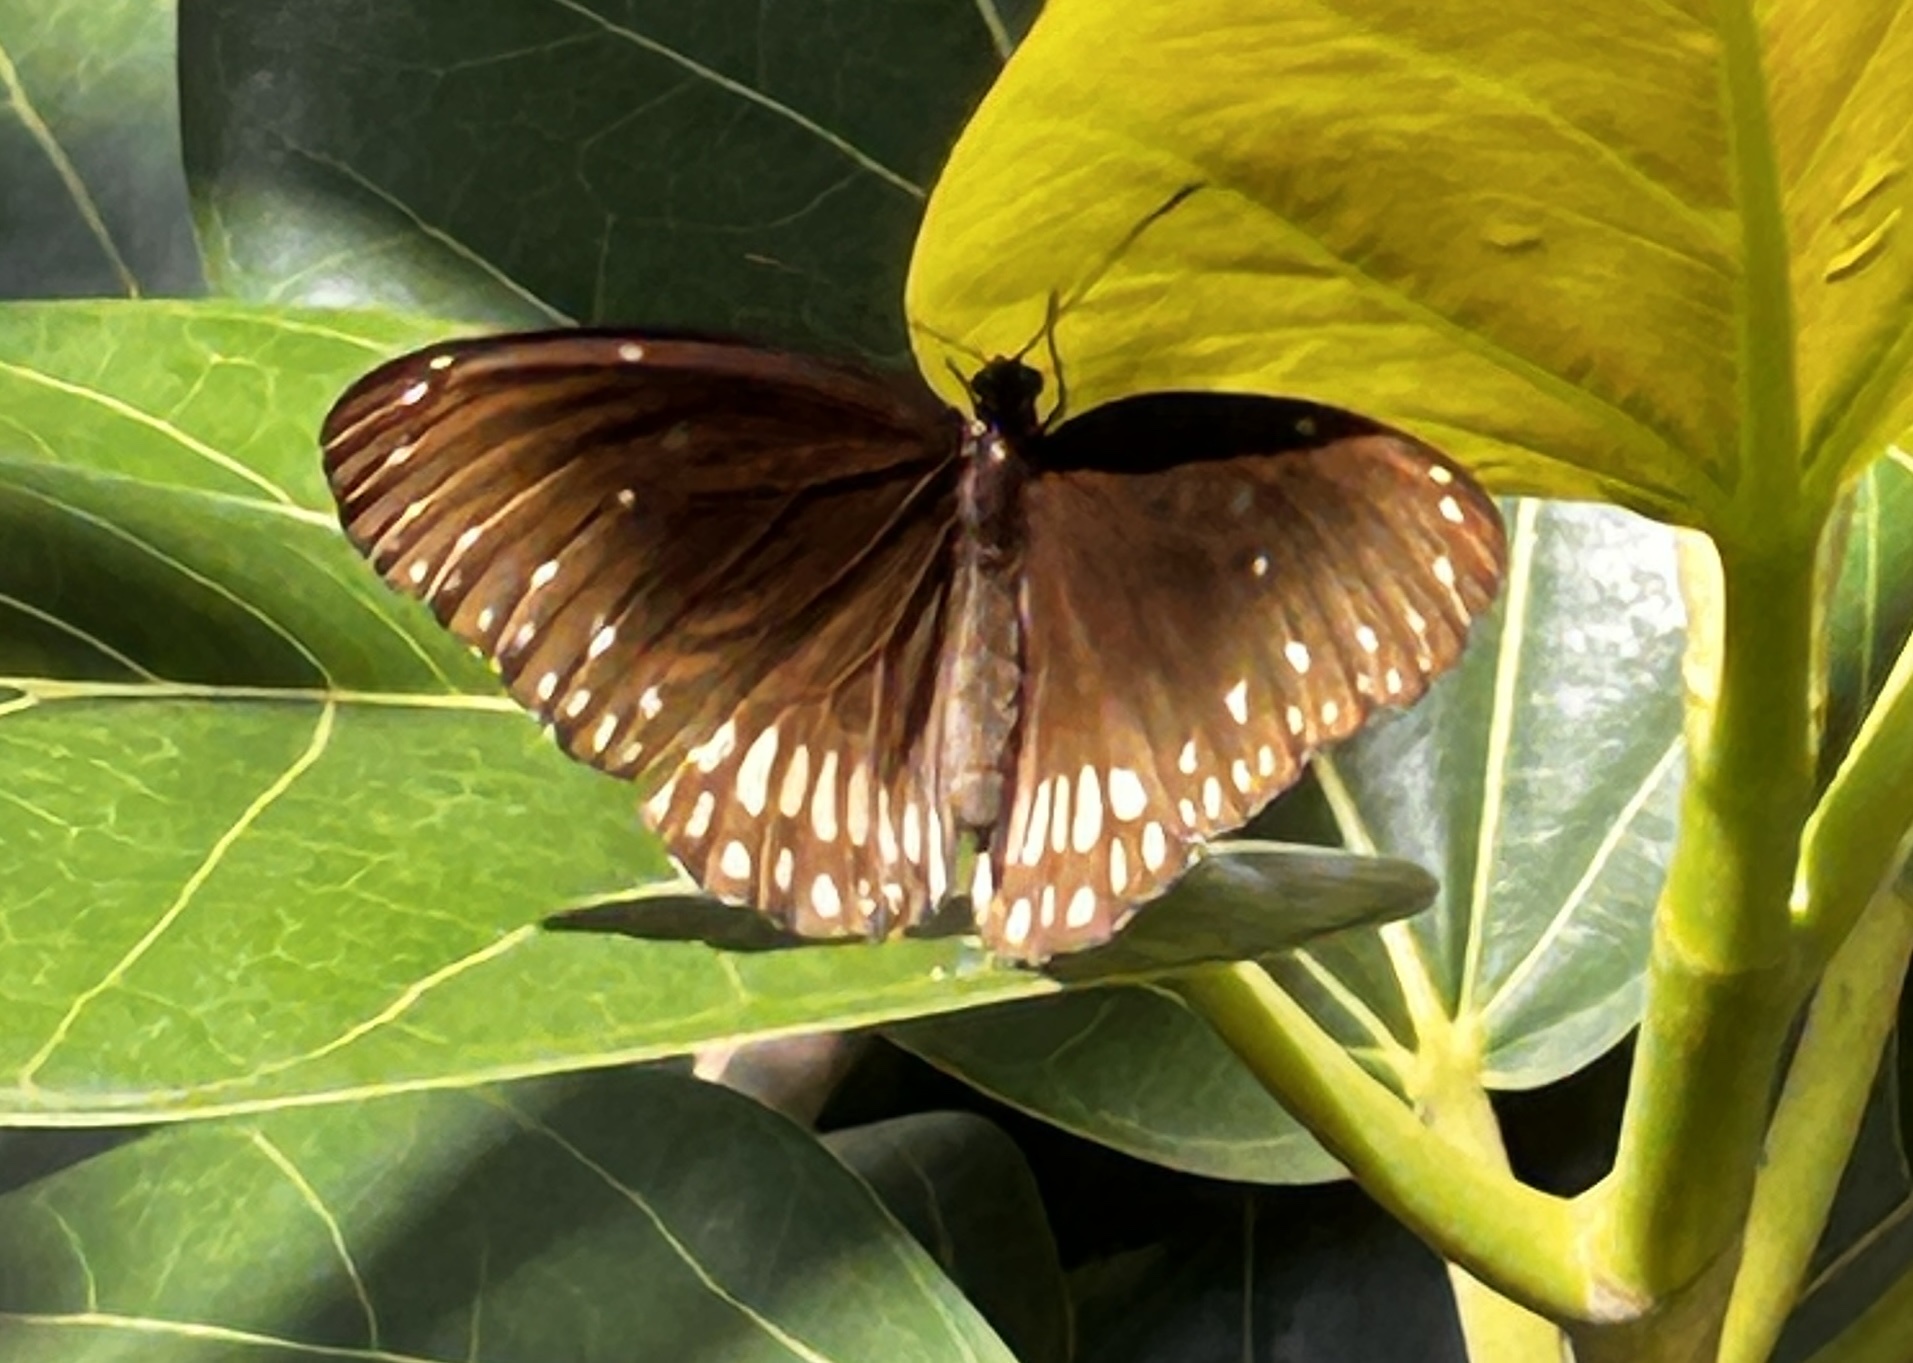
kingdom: Animalia
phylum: Arthropoda
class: Insecta
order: Lepidoptera
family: Nymphalidae
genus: Euploea
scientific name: Euploea core
